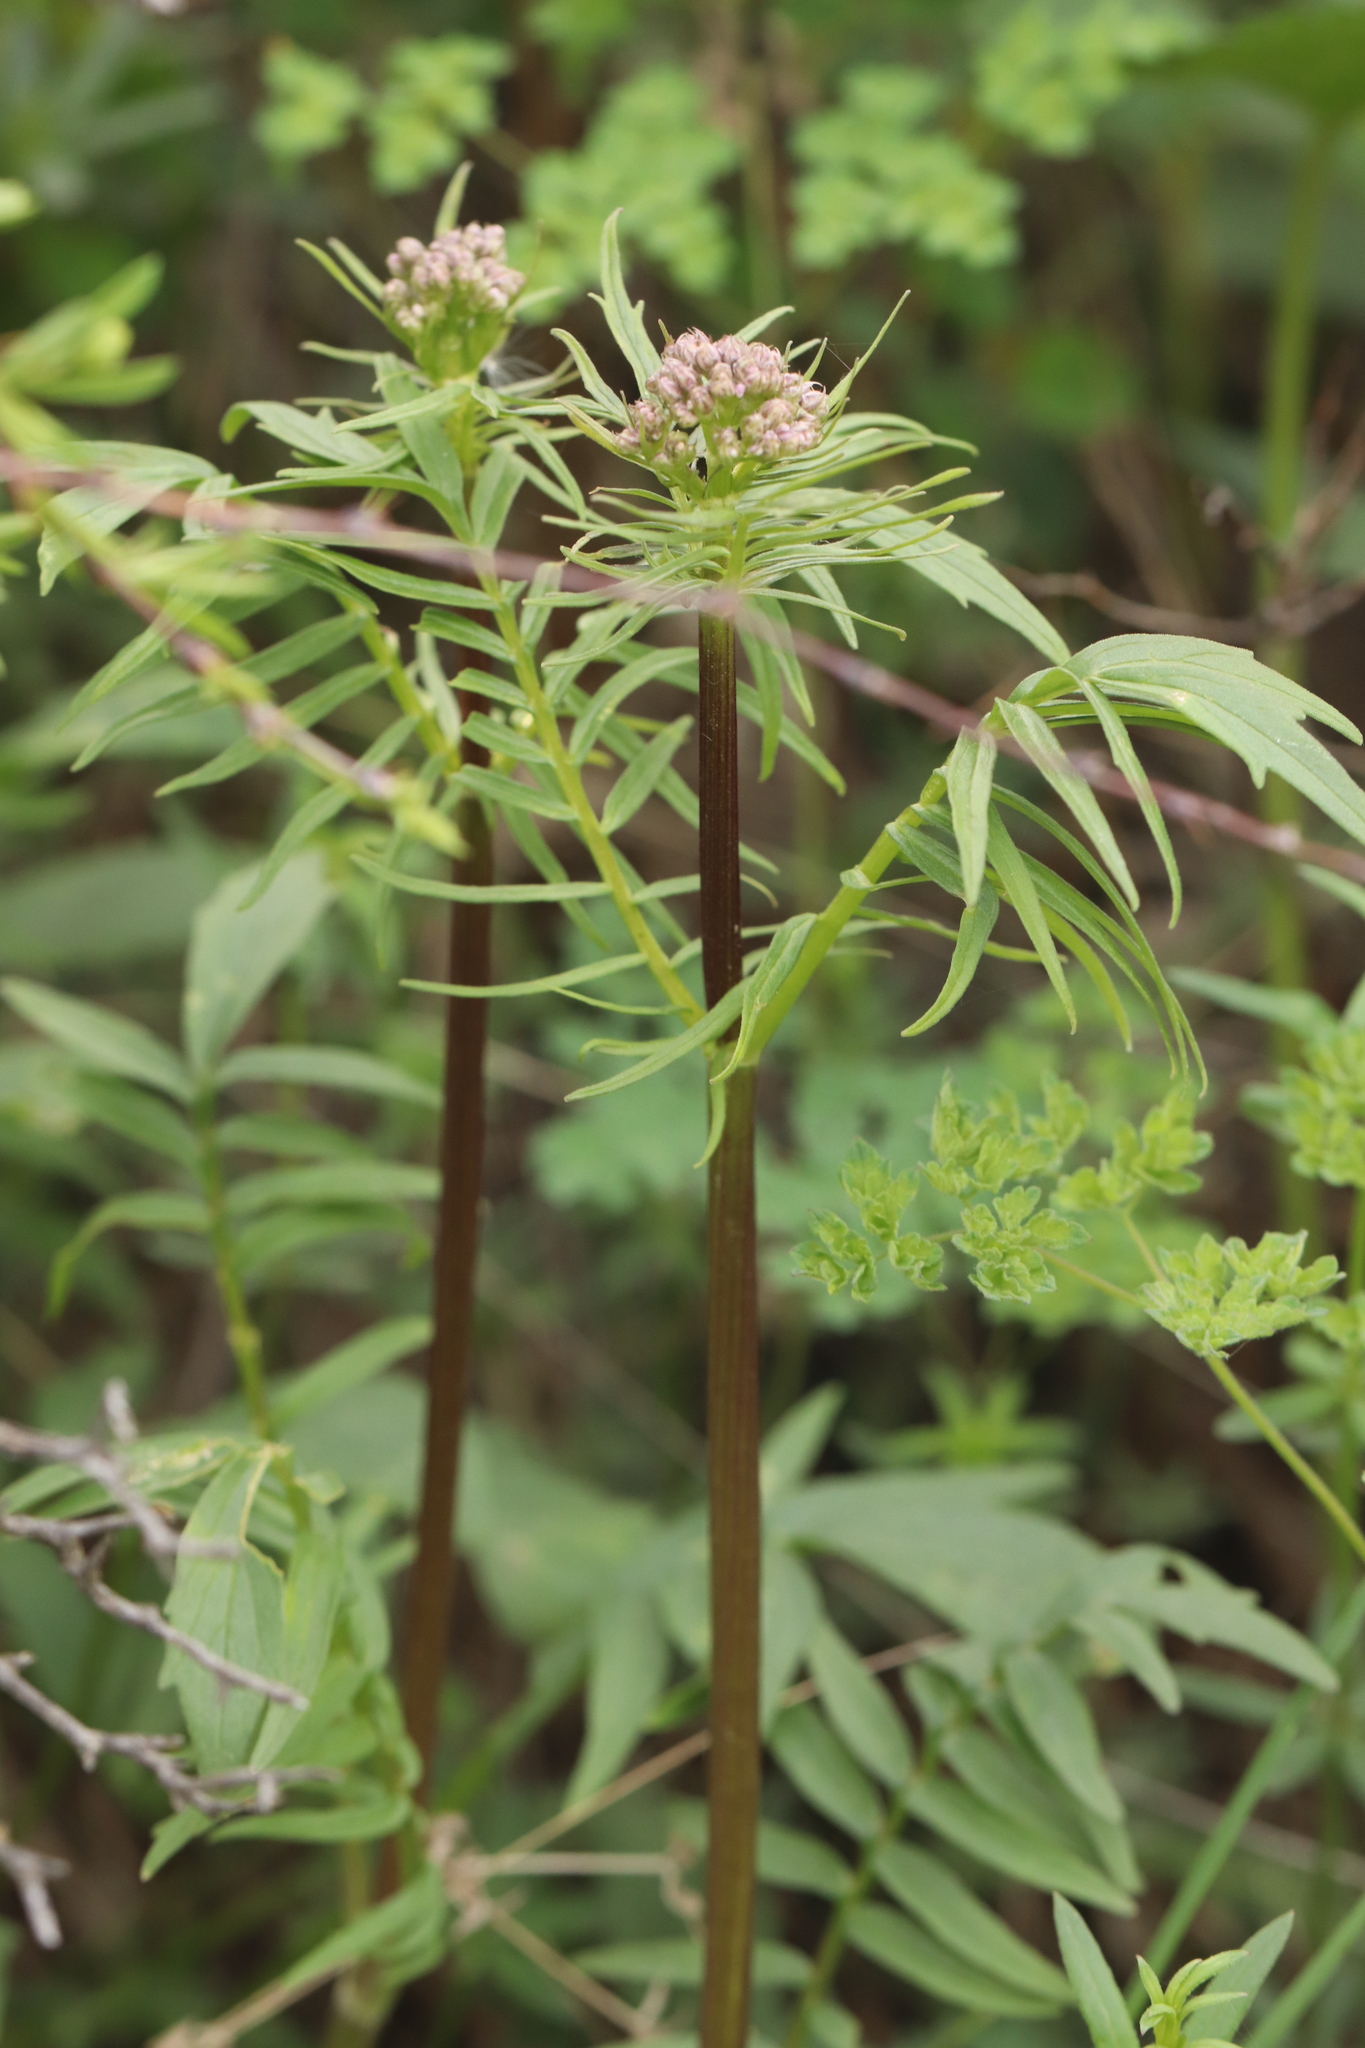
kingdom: Plantae
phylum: Tracheophyta
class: Magnoliopsida
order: Dipsacales
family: Caprifoliaceae
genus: Valeriana
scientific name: Valeriana rossica
